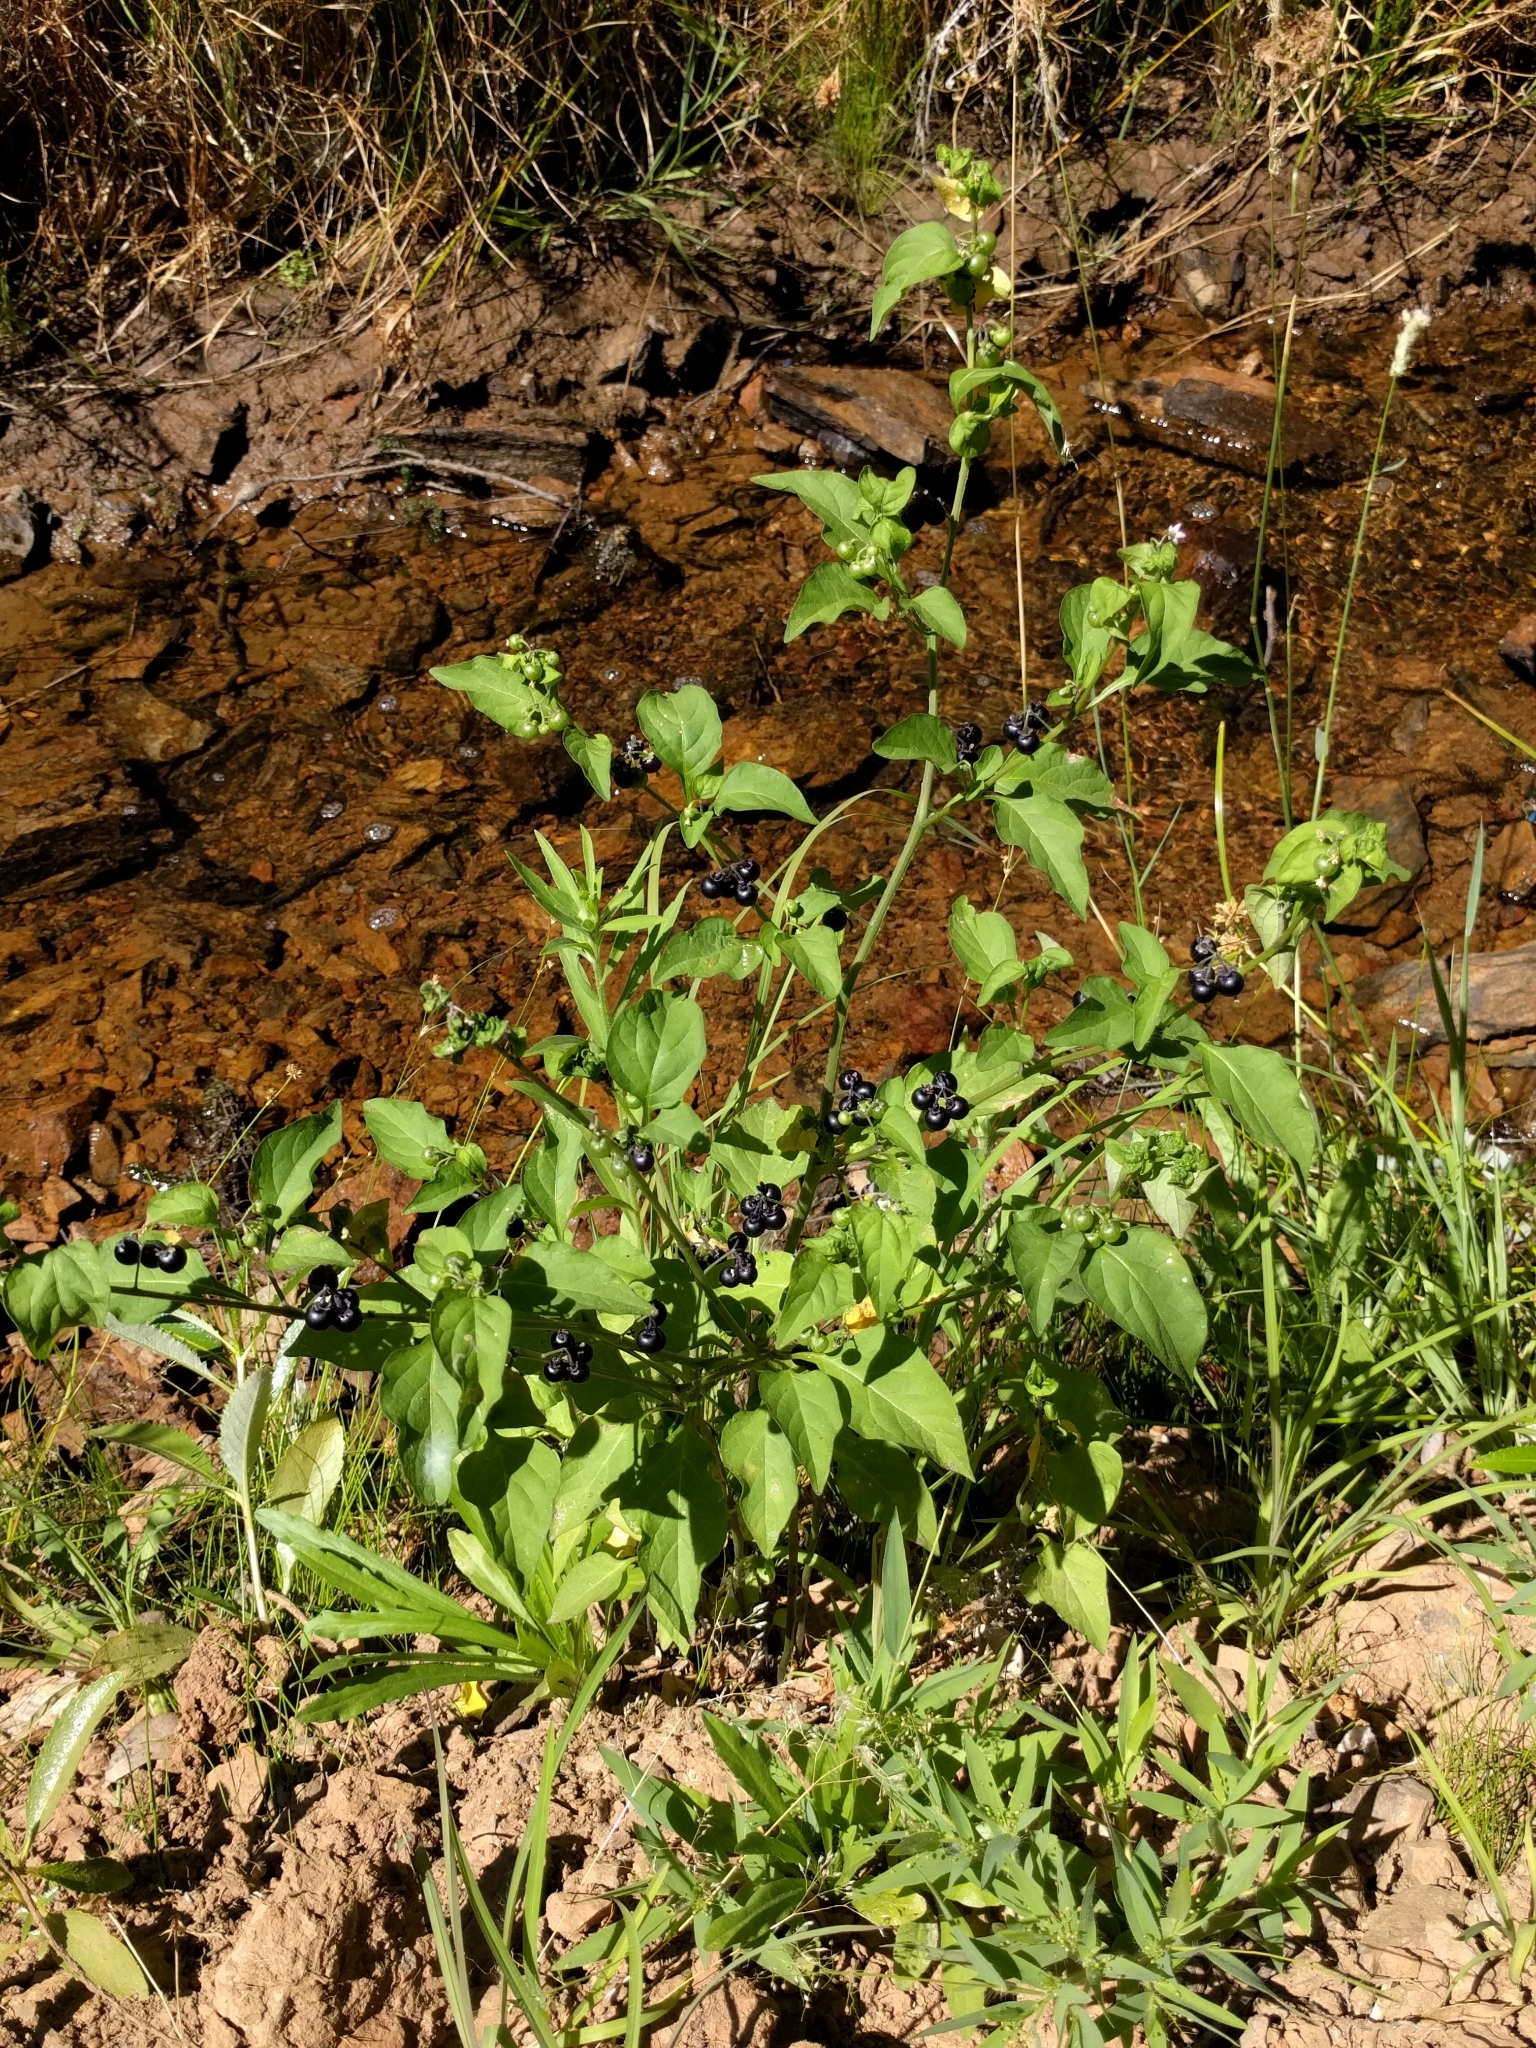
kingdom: Plantae
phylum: Tracheophyta
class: Magnoliopsida
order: Solanales
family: Solanaceae
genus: Solanum
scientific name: Solanum americanum
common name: American black nightshade
